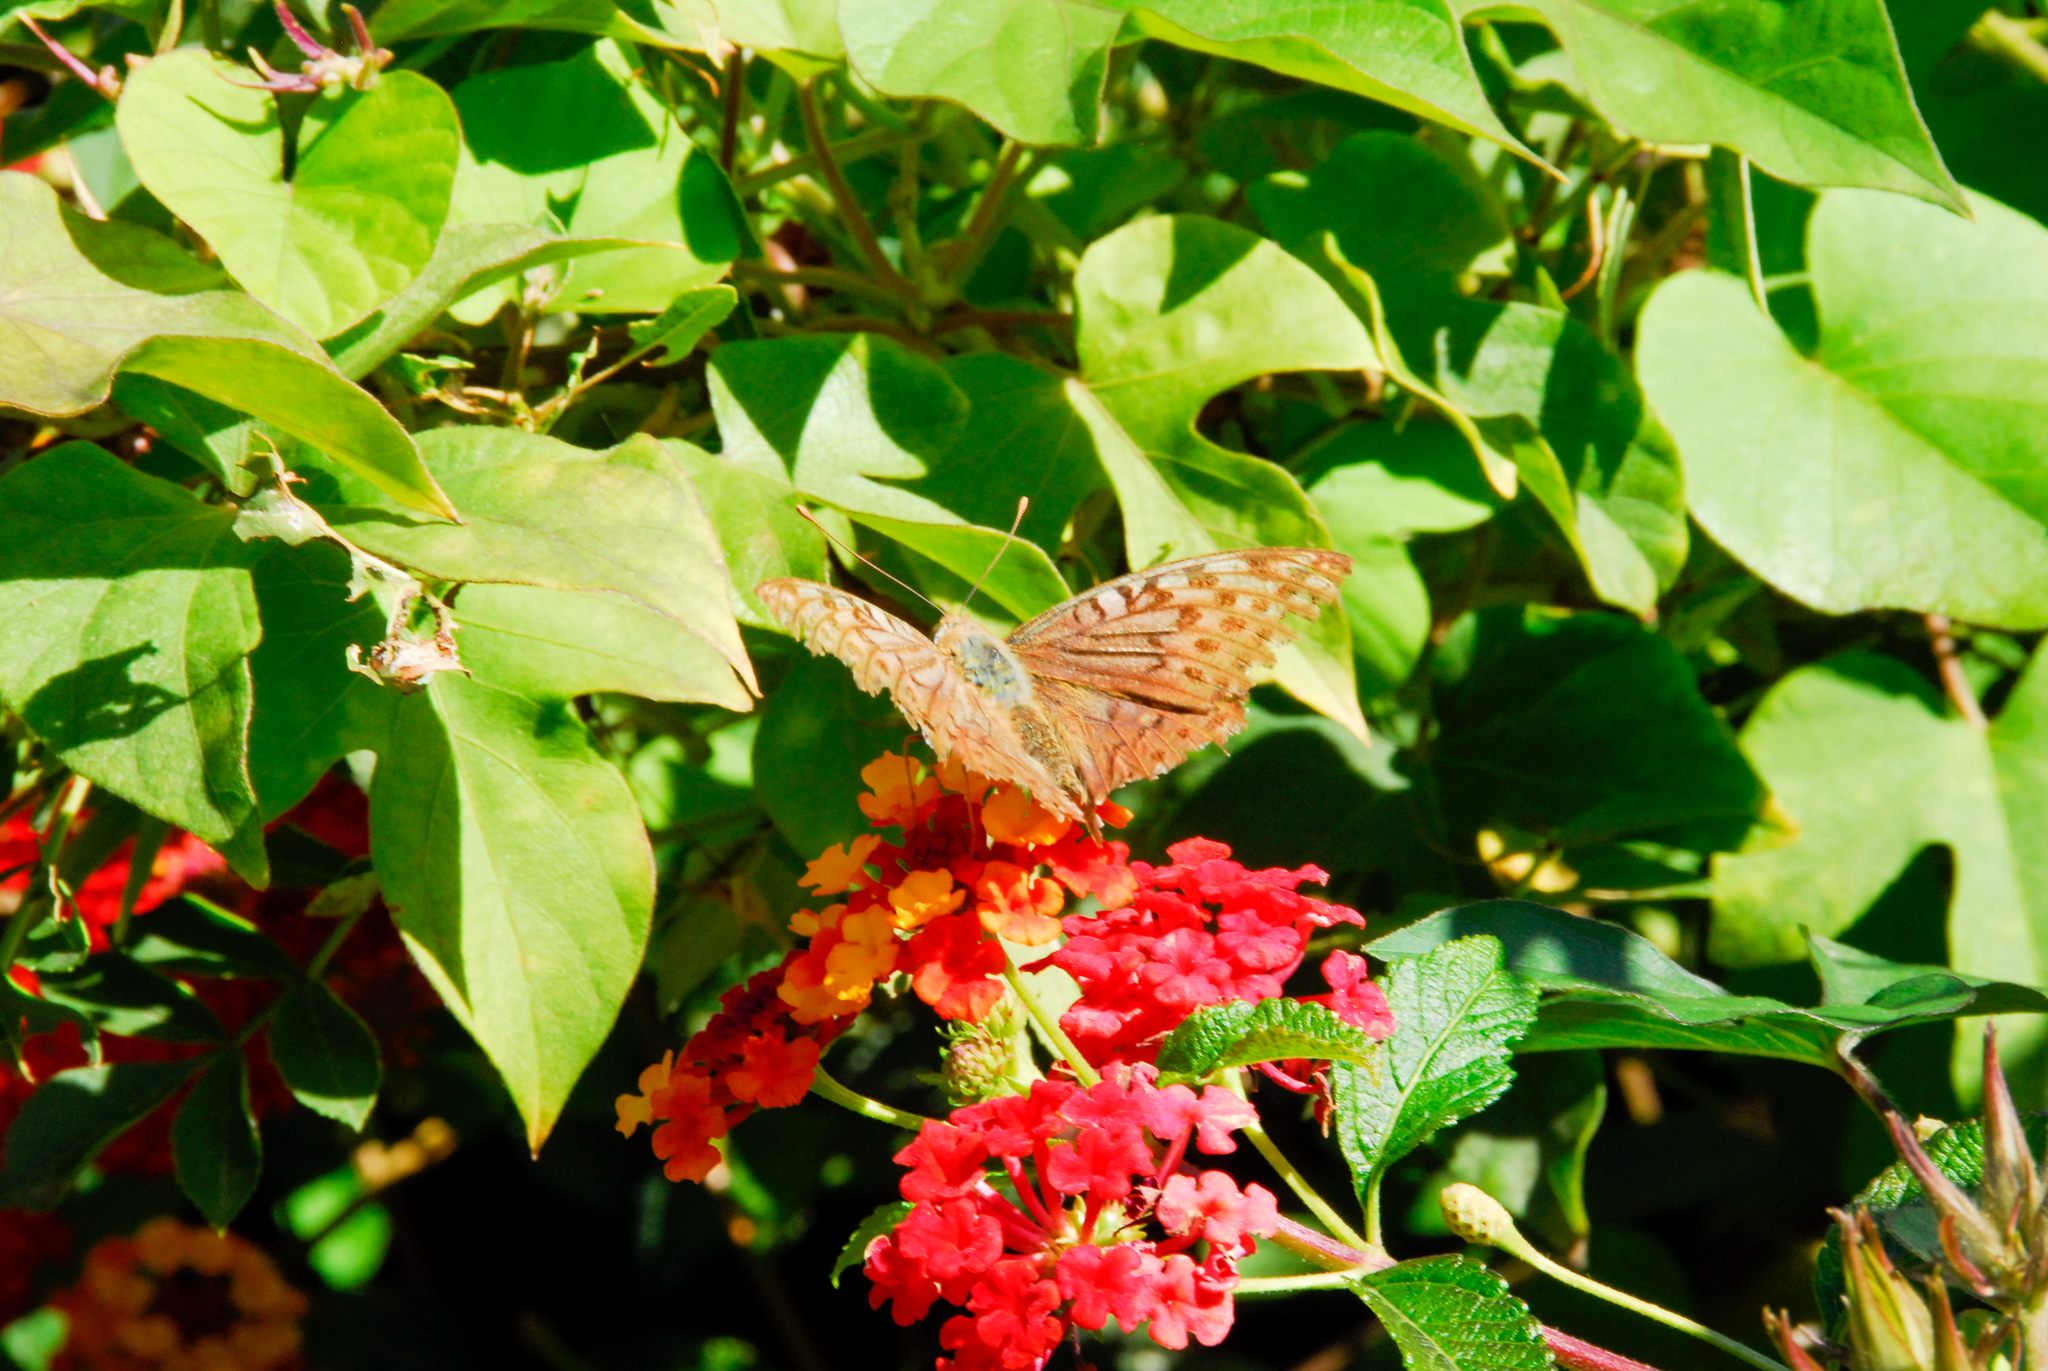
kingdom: Animalia
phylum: Arthropoda
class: Insecta
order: Lepidoptera
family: Nymphalidae
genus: Damora
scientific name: Damora pandora
